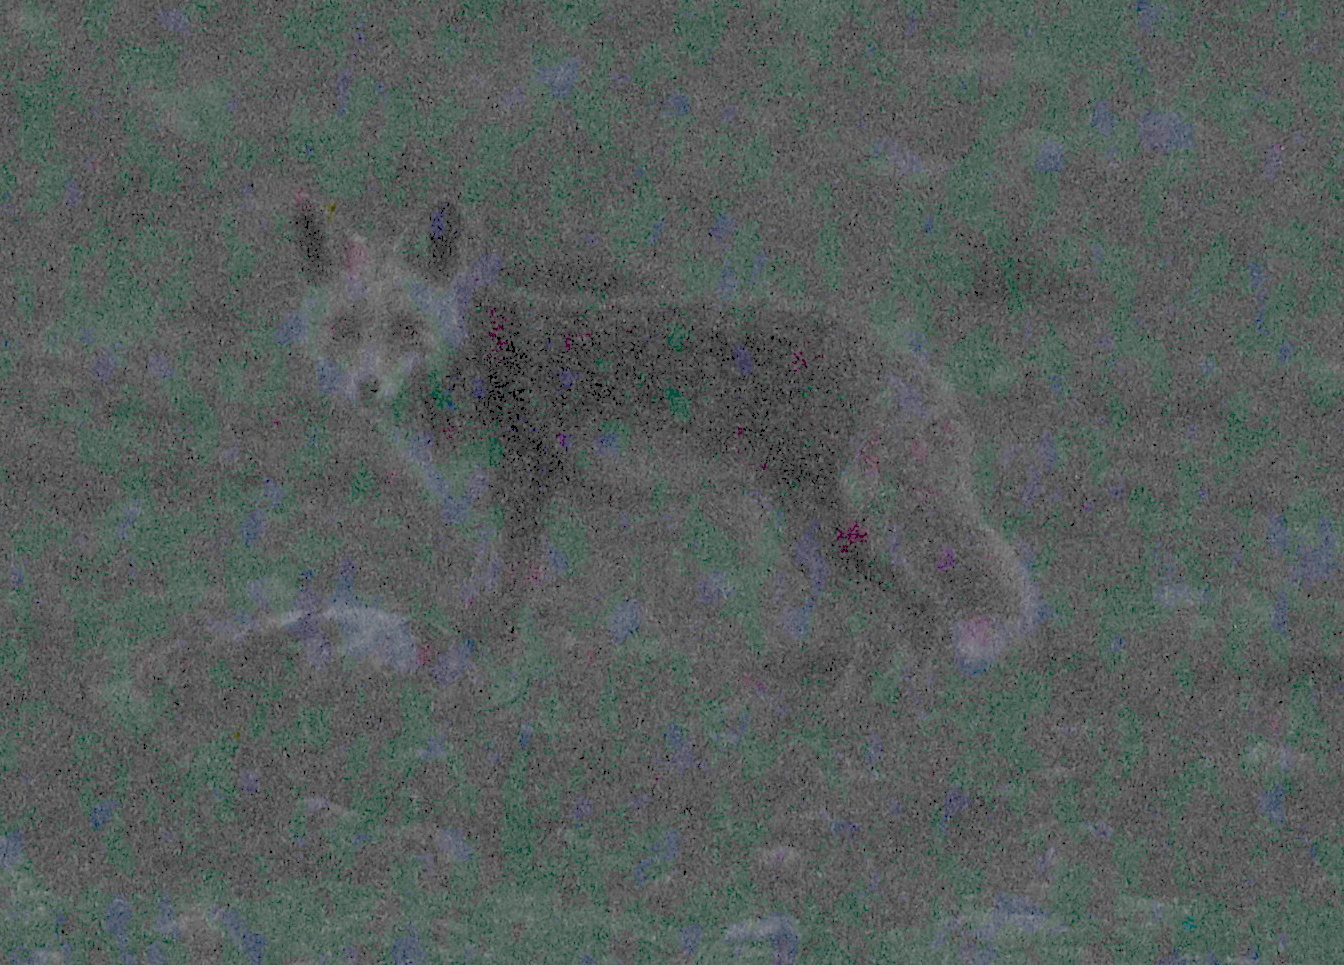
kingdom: Animalia
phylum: Chordata
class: Mammalia
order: Carnivora
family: Canidae
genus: Vulpes
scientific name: Vulpes vulpes
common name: Red fox
